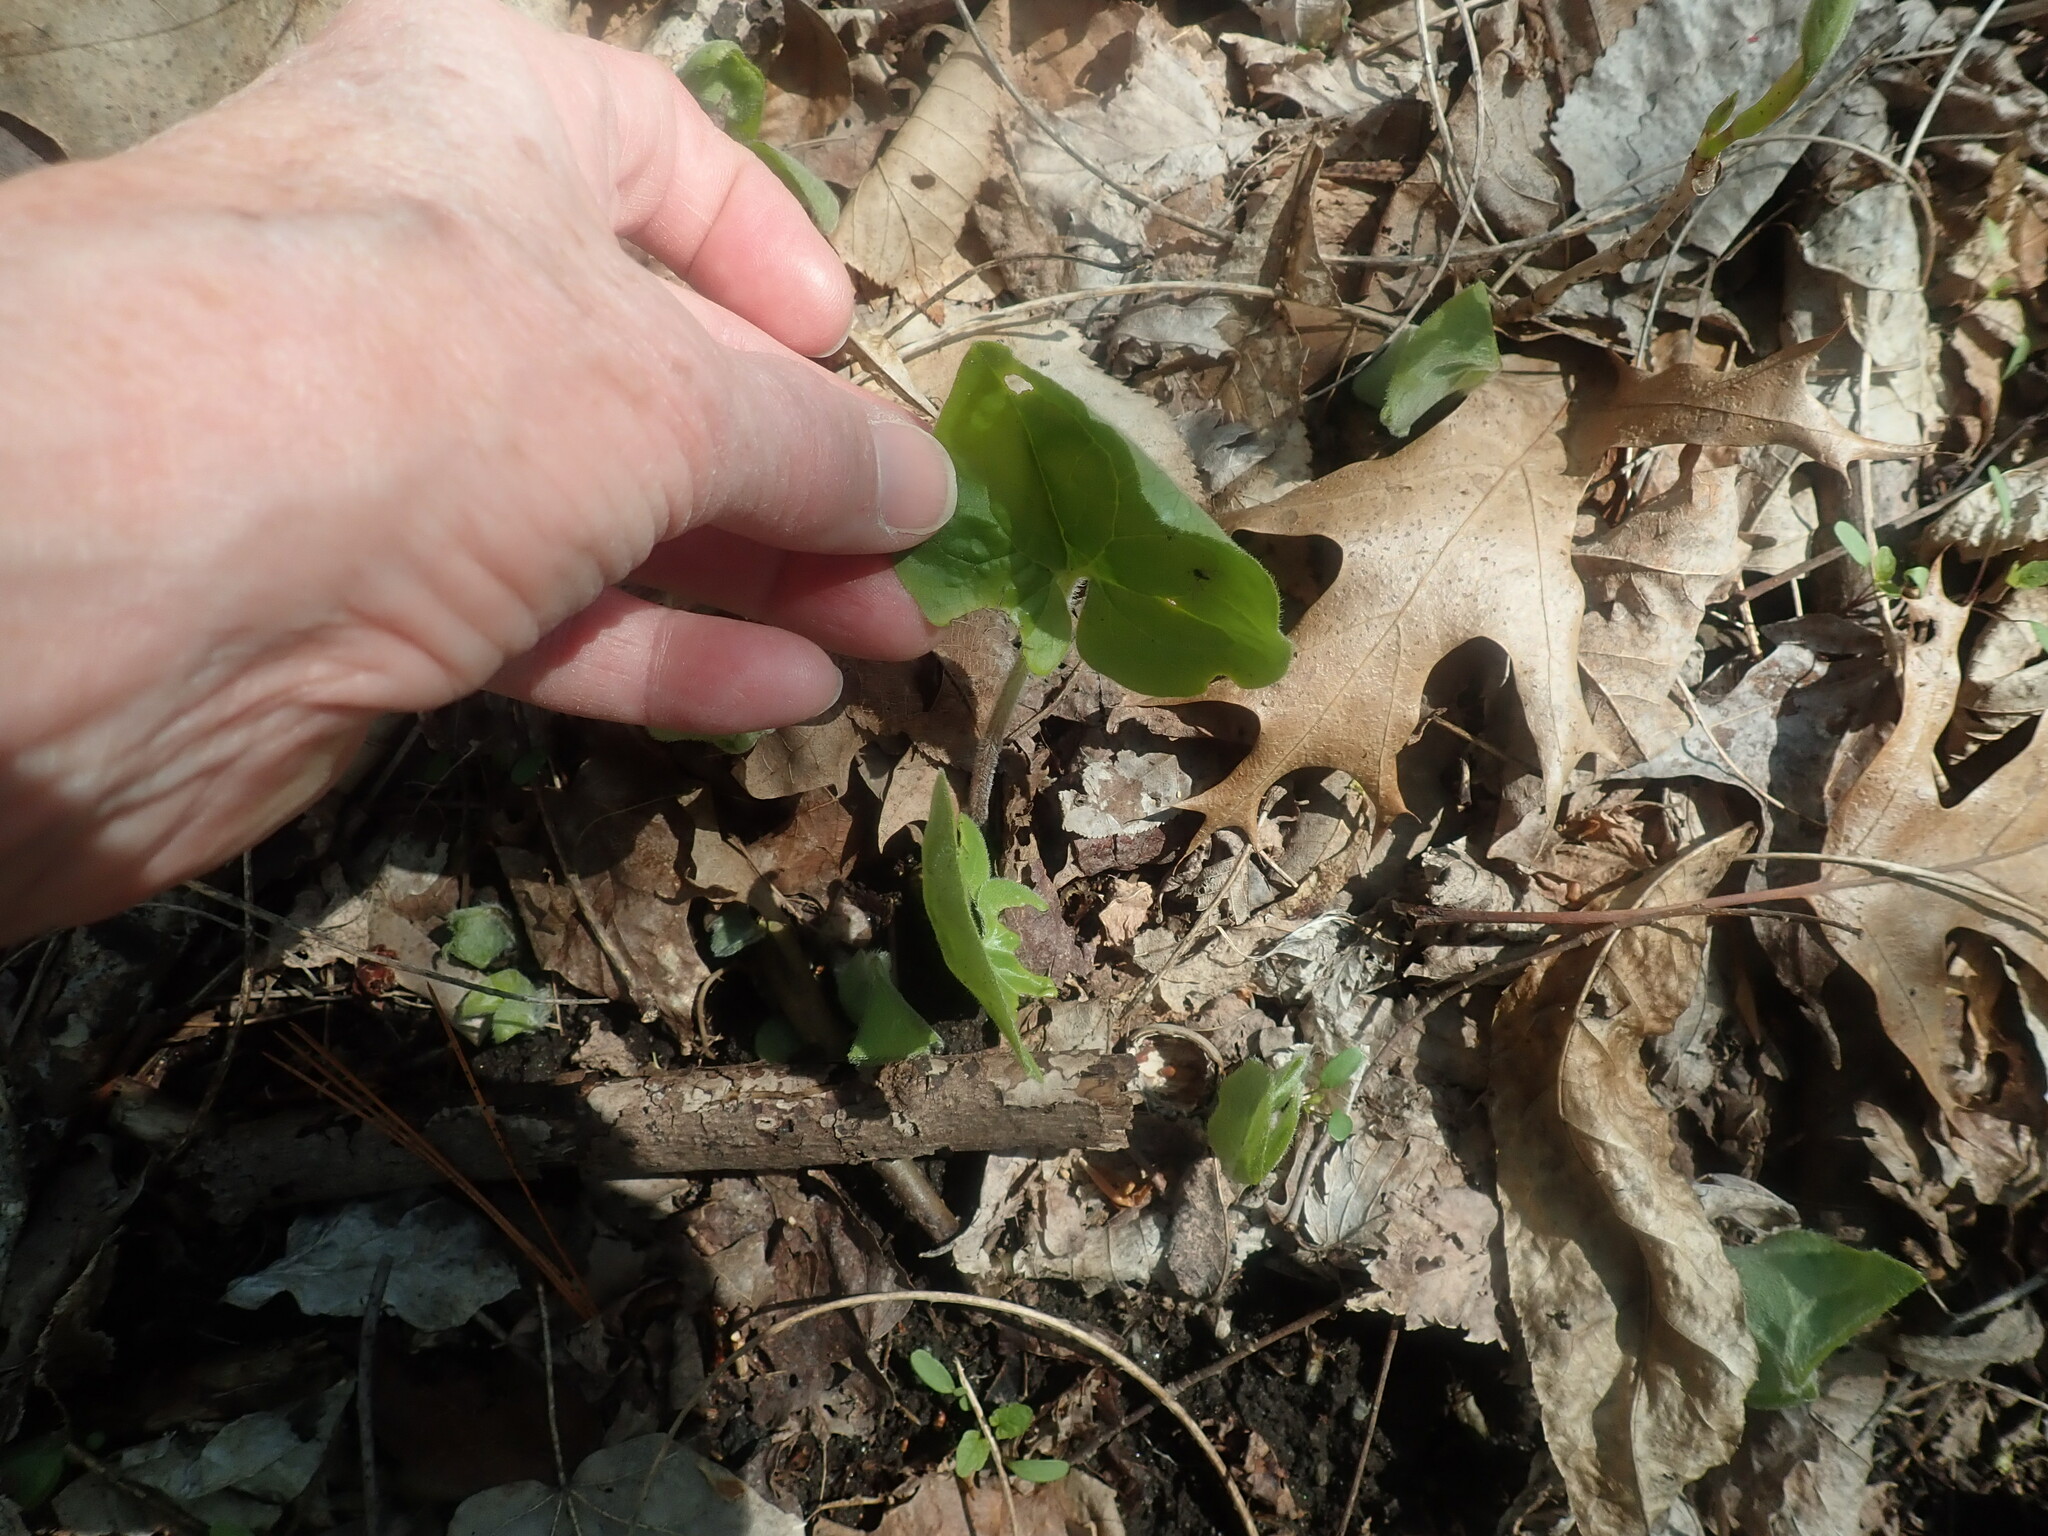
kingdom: Plantae
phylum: Tracheophyta
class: Magnoliopsida
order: Piperales
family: Aristolochiaceae
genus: Asarum
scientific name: Asarum canadense
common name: Wild ginger
